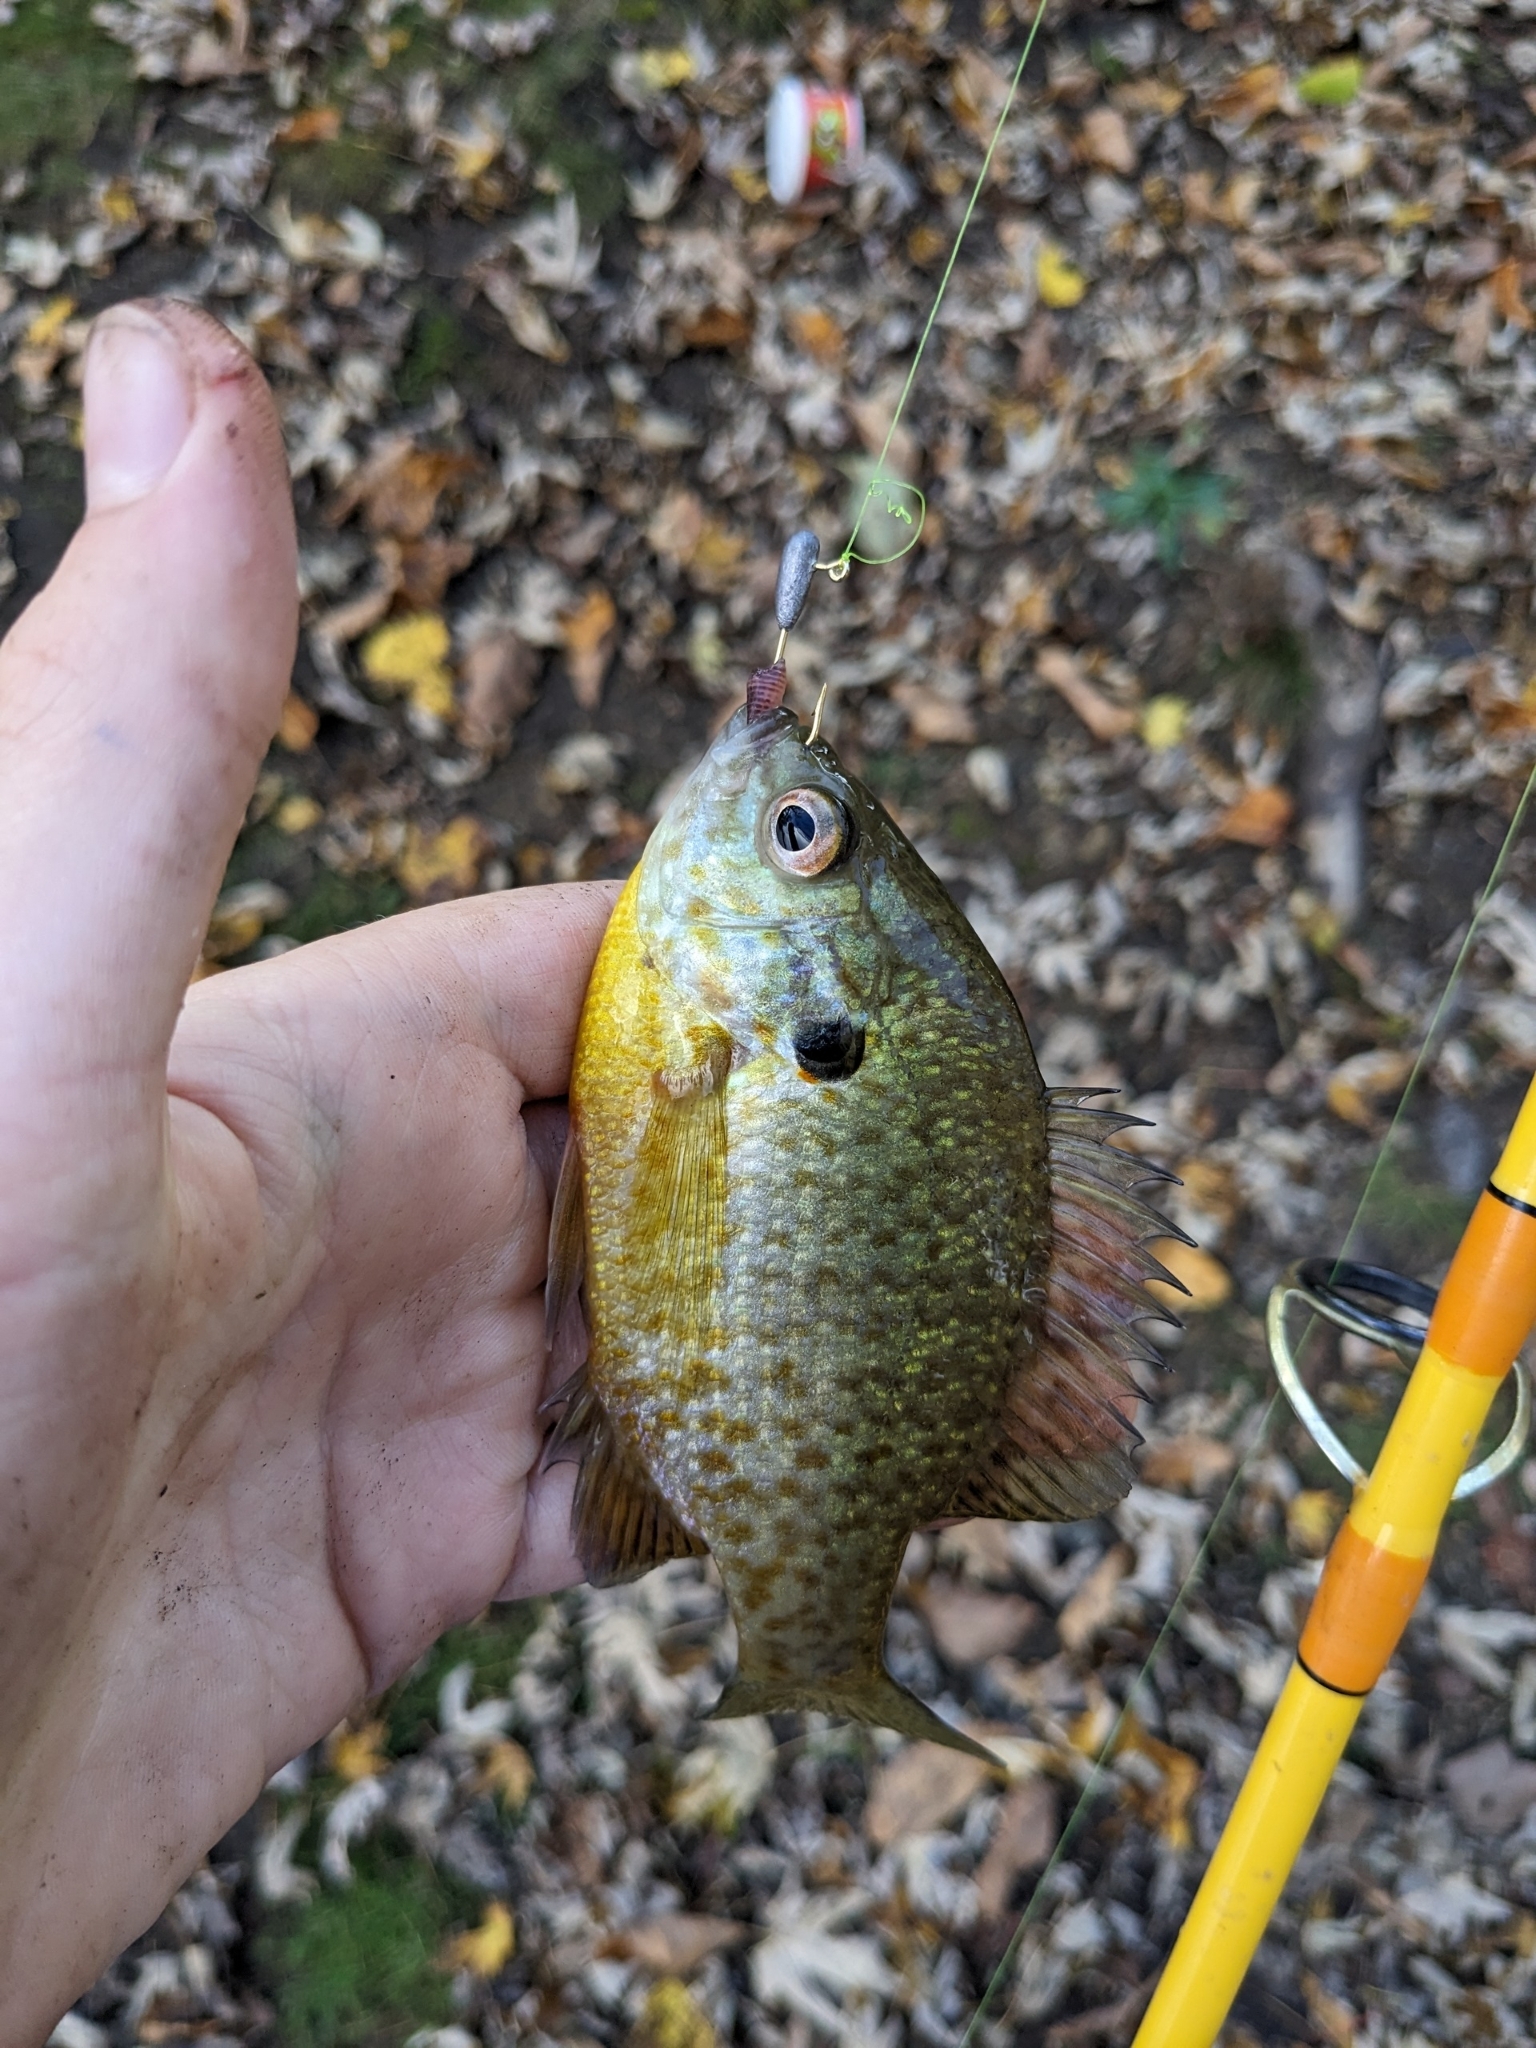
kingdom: Animalia
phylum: Chordata
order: Perciformes
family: Centrarchidae
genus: Lepomis
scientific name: Lepomis
